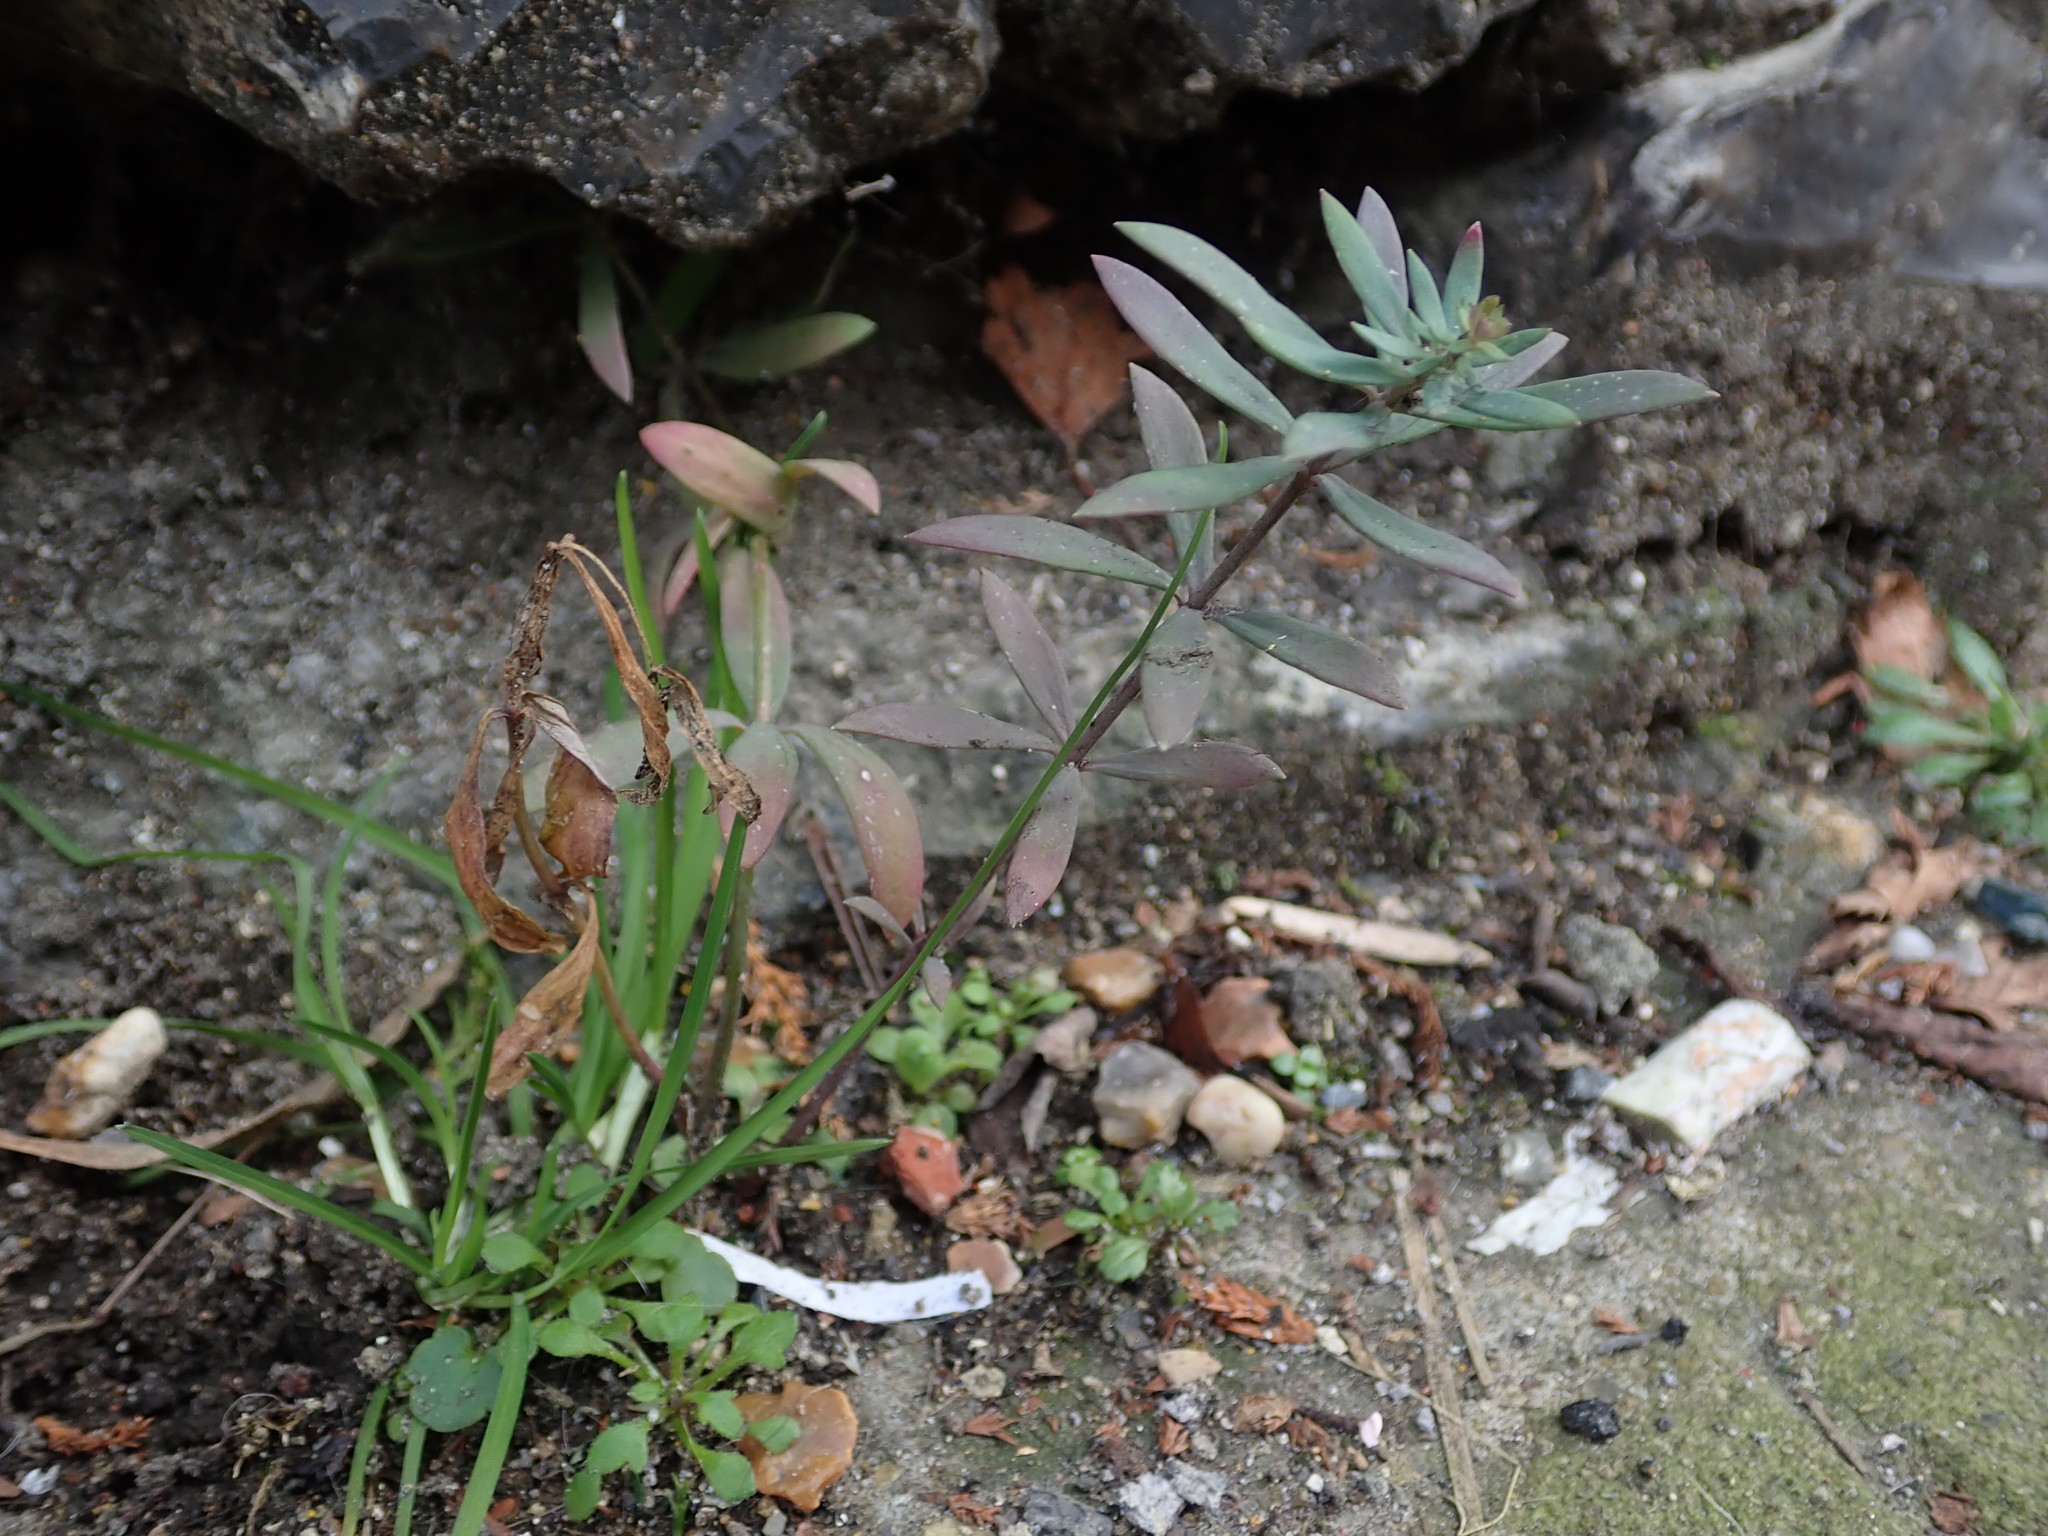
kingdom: Plantae
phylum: Tracheophyta
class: Magnoliopsida
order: Lamiales
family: Plantaginaceae
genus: Linaria
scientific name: Linaria purpurea
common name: Purple toadflax
